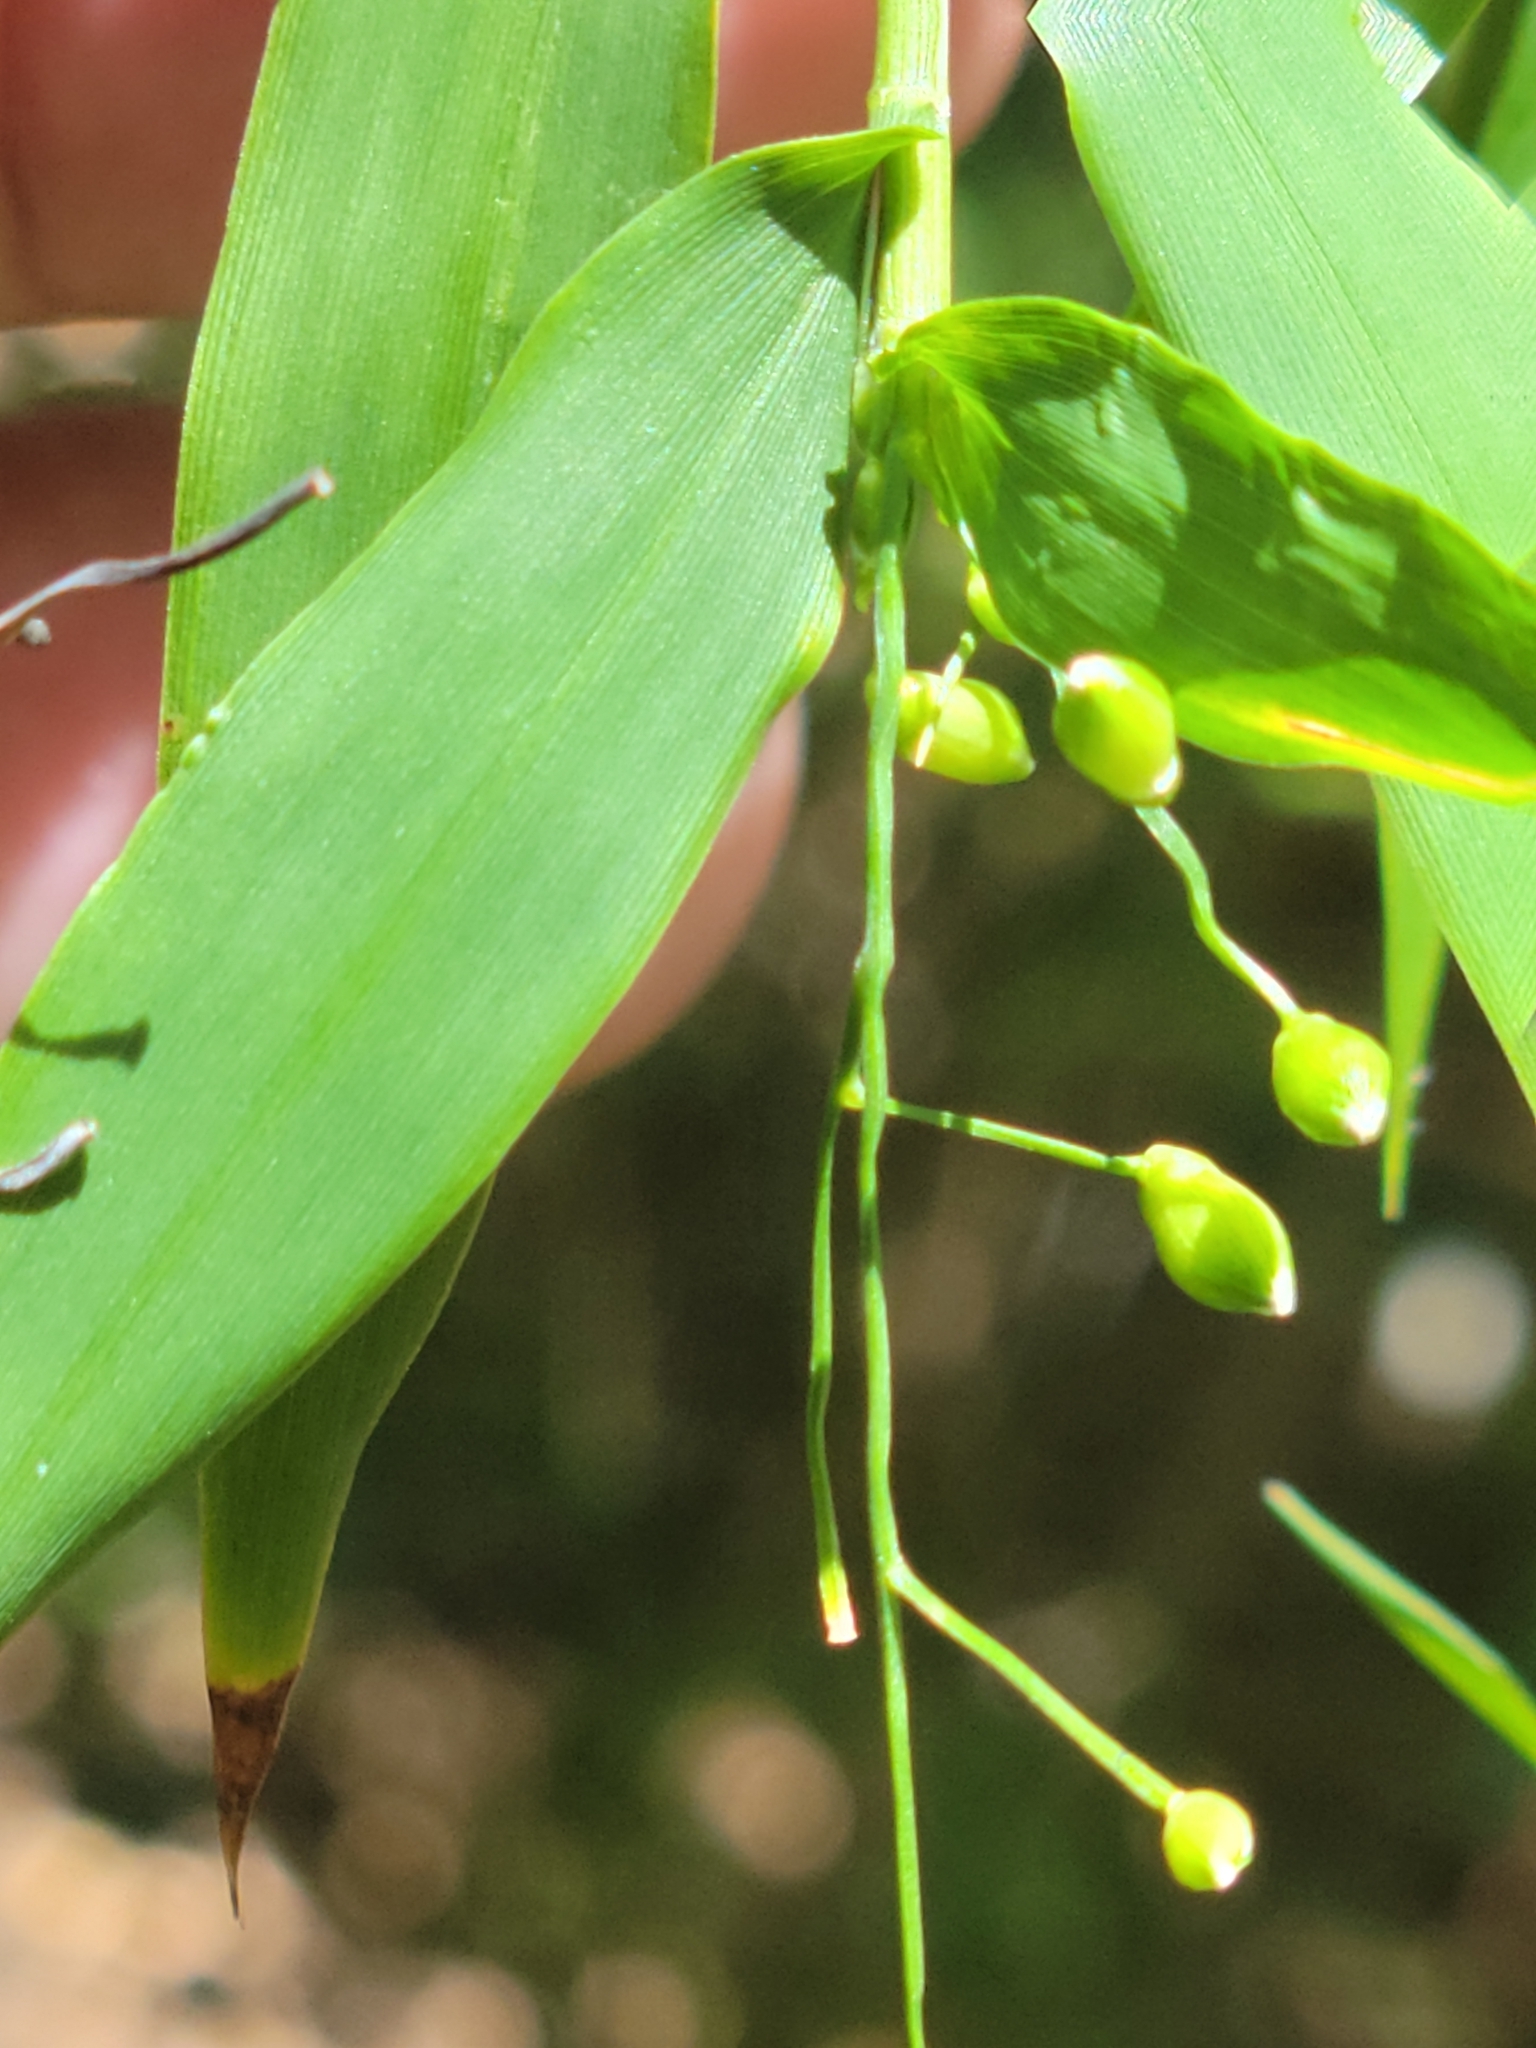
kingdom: Plantae
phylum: Tracheophyta
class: Liliopsida
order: Poales
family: Poaceae
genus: Lasiacis
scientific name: Lasiacis divaricata
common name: Smallcane
